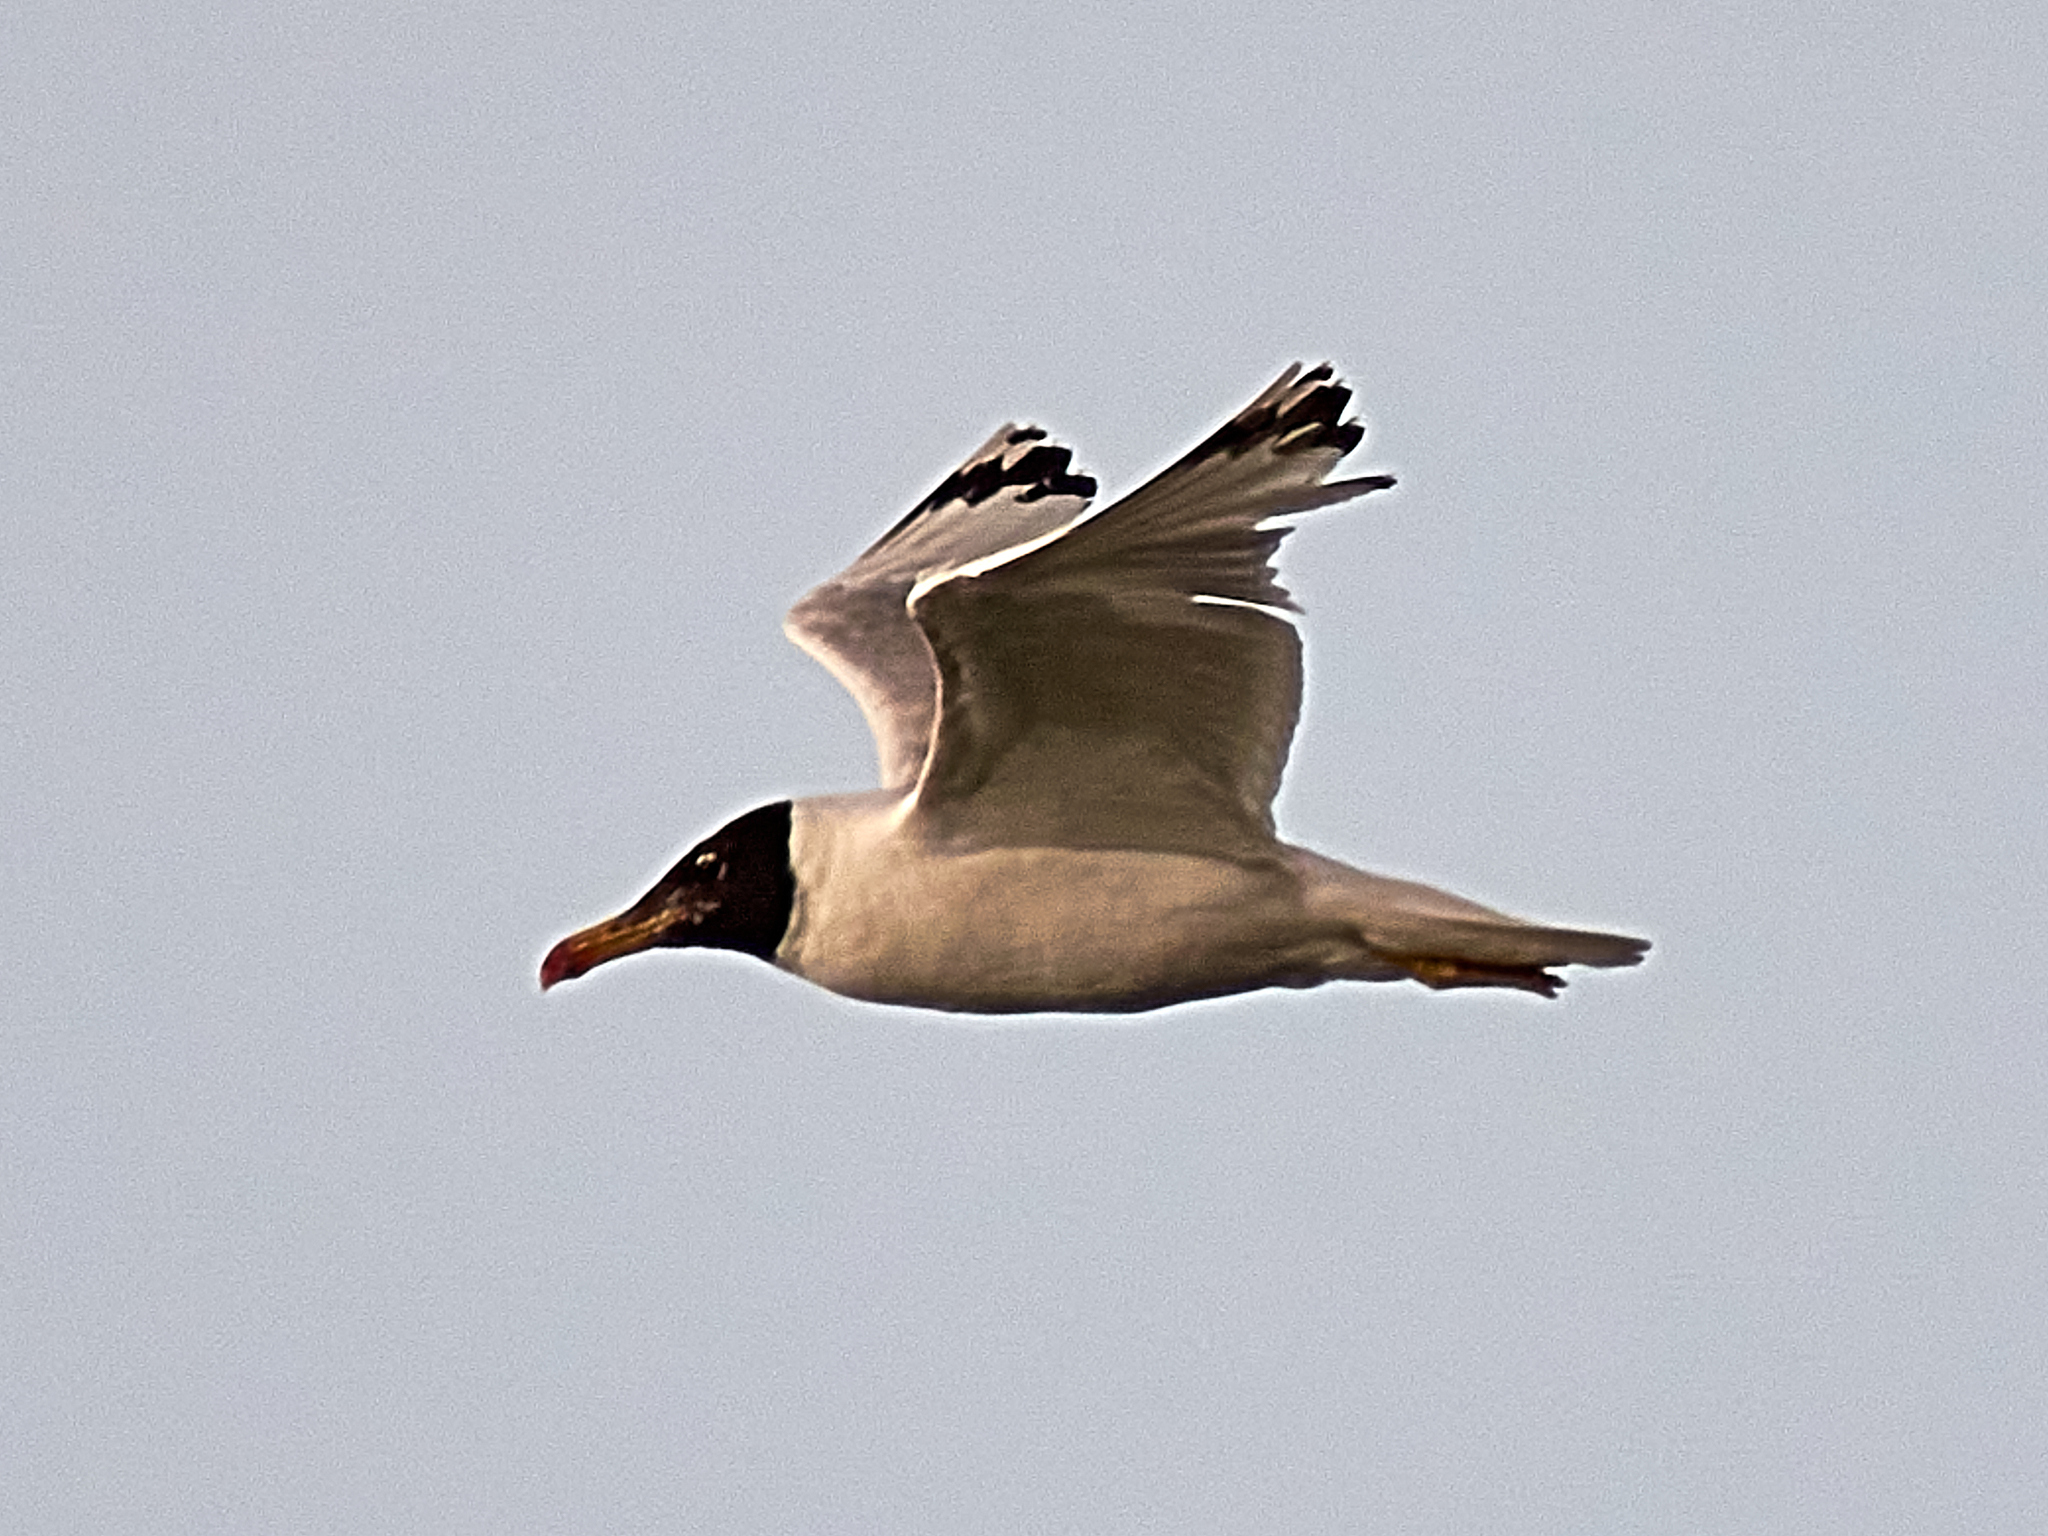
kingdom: Animalia
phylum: Chordata
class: Aves
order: Charadriiformes
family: Laridae
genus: Ichthyaetus
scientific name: Ichthyaetus ichthyaetus
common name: Pallas's gull
